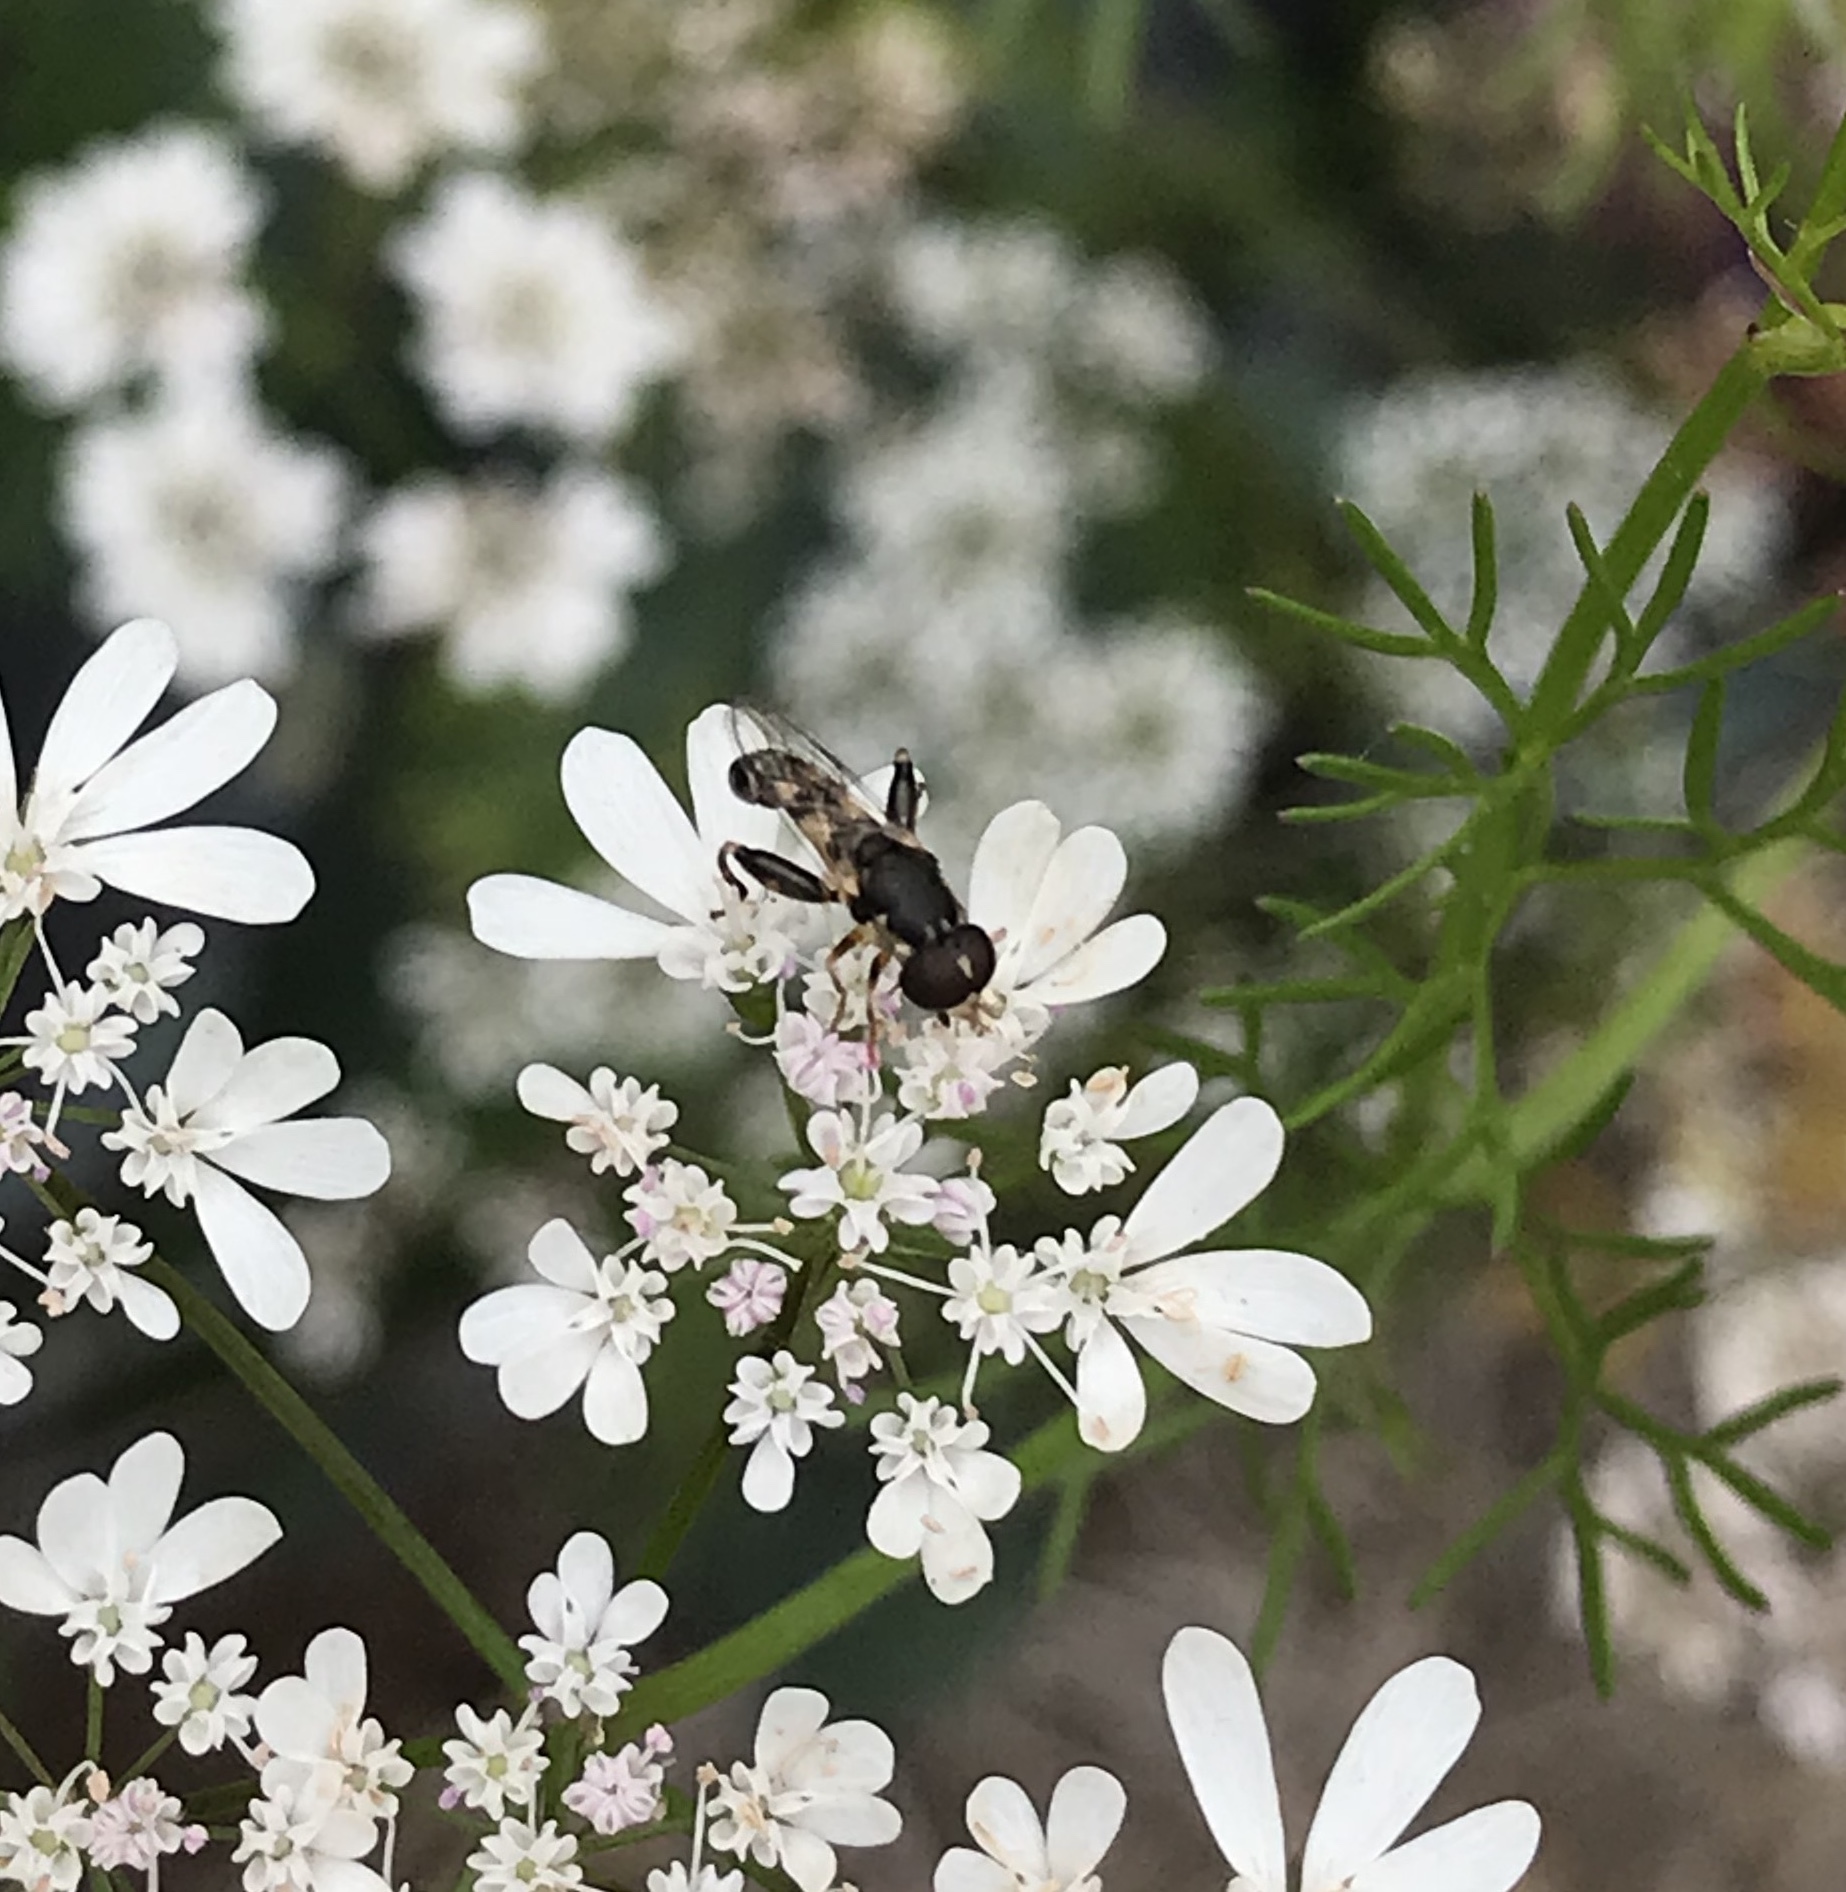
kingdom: Animalia
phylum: Arthropoda
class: Insecta
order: Diptera
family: Syrphidae
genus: Syritta
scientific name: Syritta pipiens
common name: Hover fly
